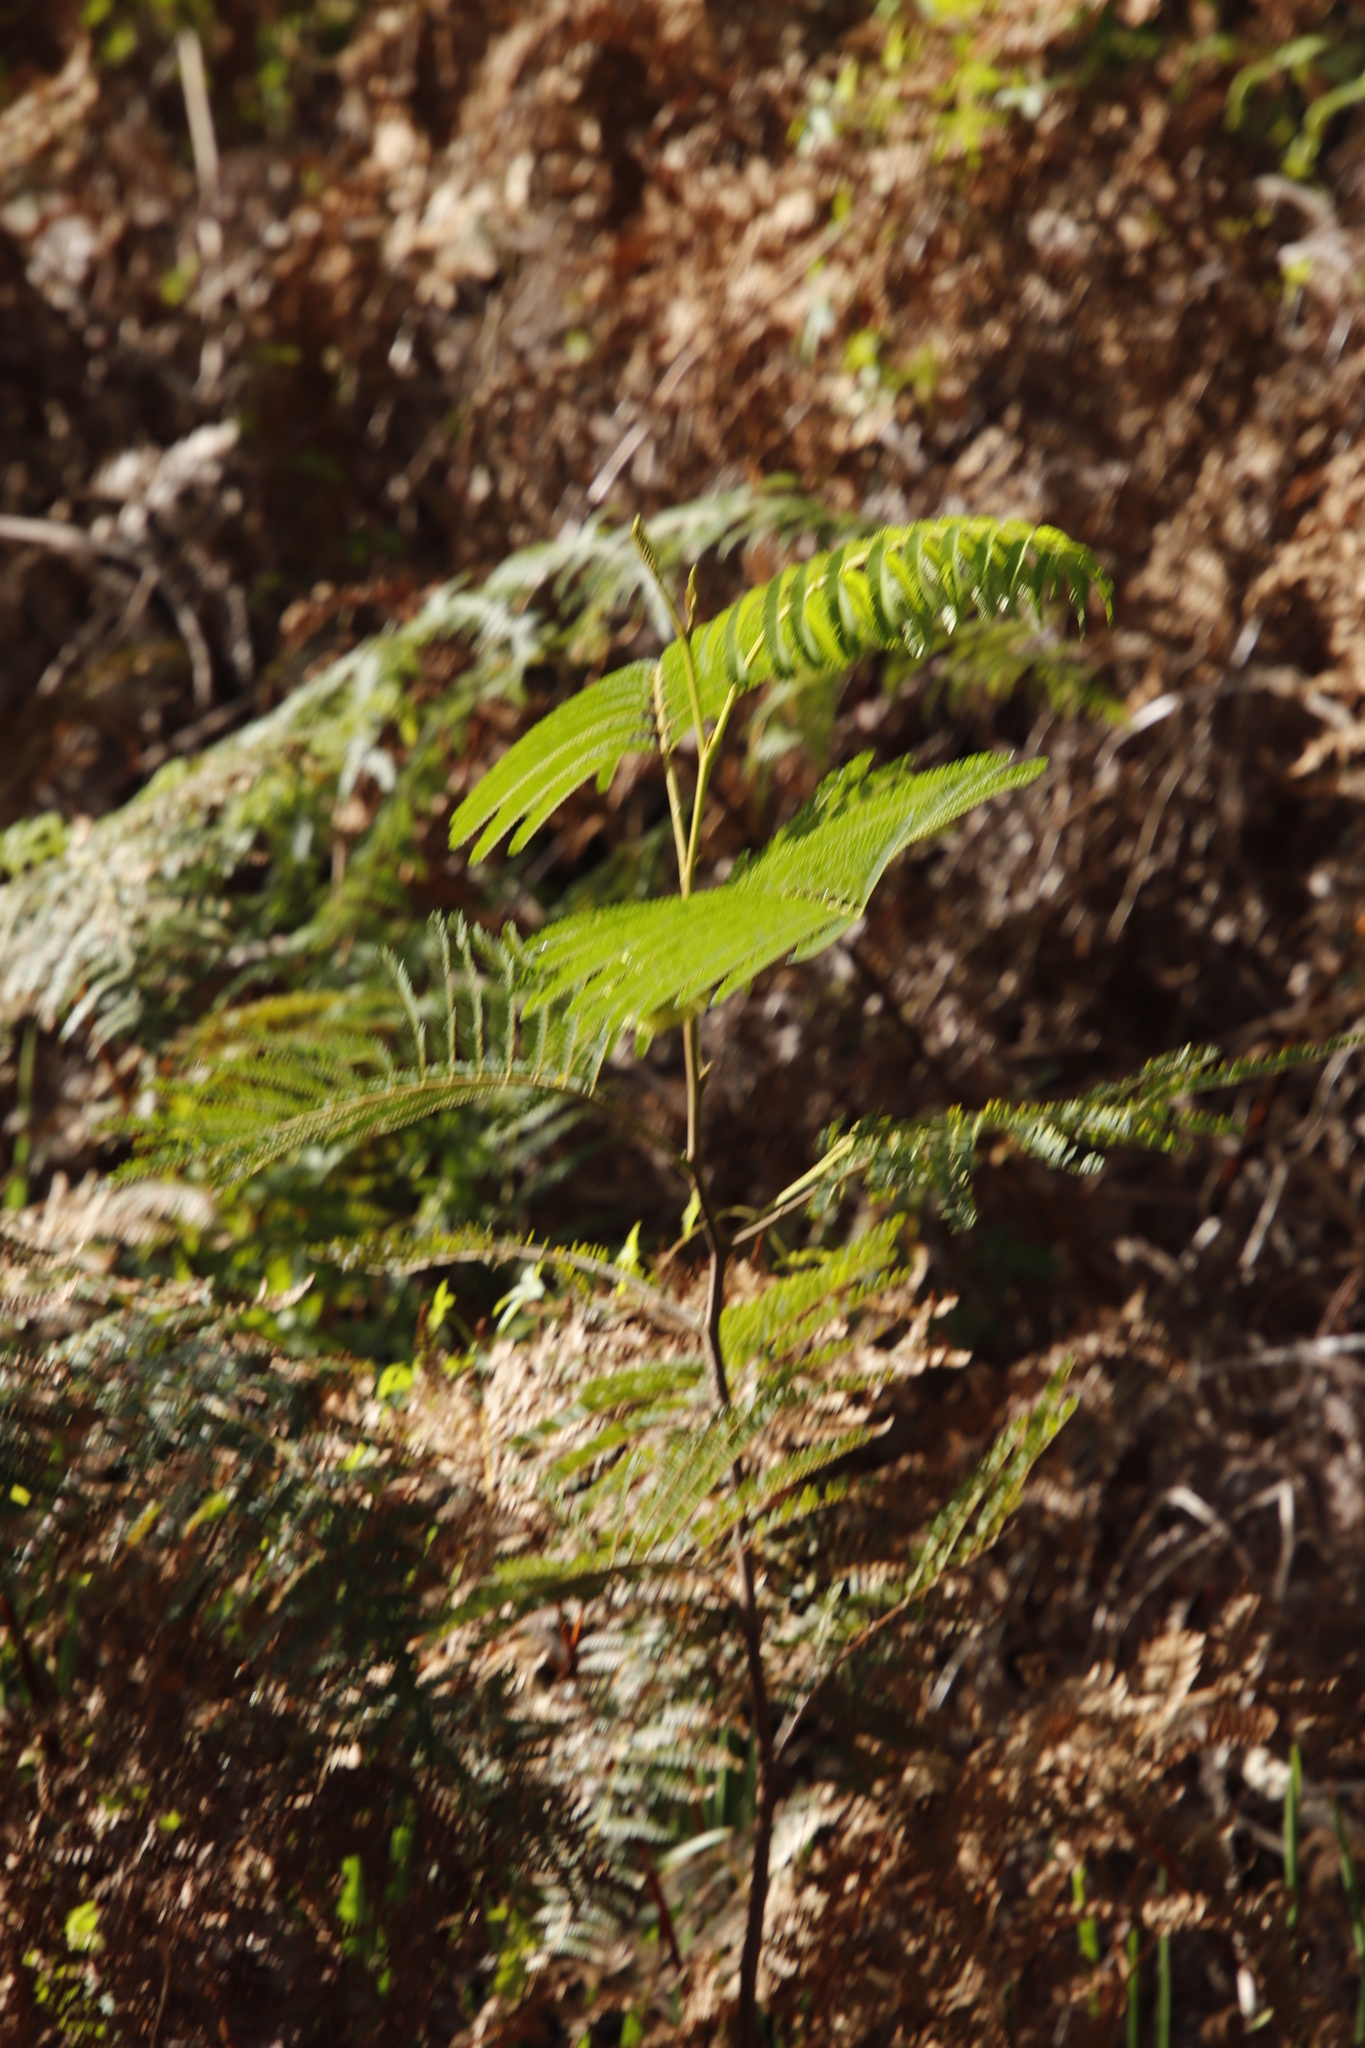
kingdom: Plantae
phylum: Tracheophyta
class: Magnoliopsida
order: Fabales
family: Fabaceae
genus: Paraserianthes
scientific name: Paraserianthes lophantha
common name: Plume albizia
